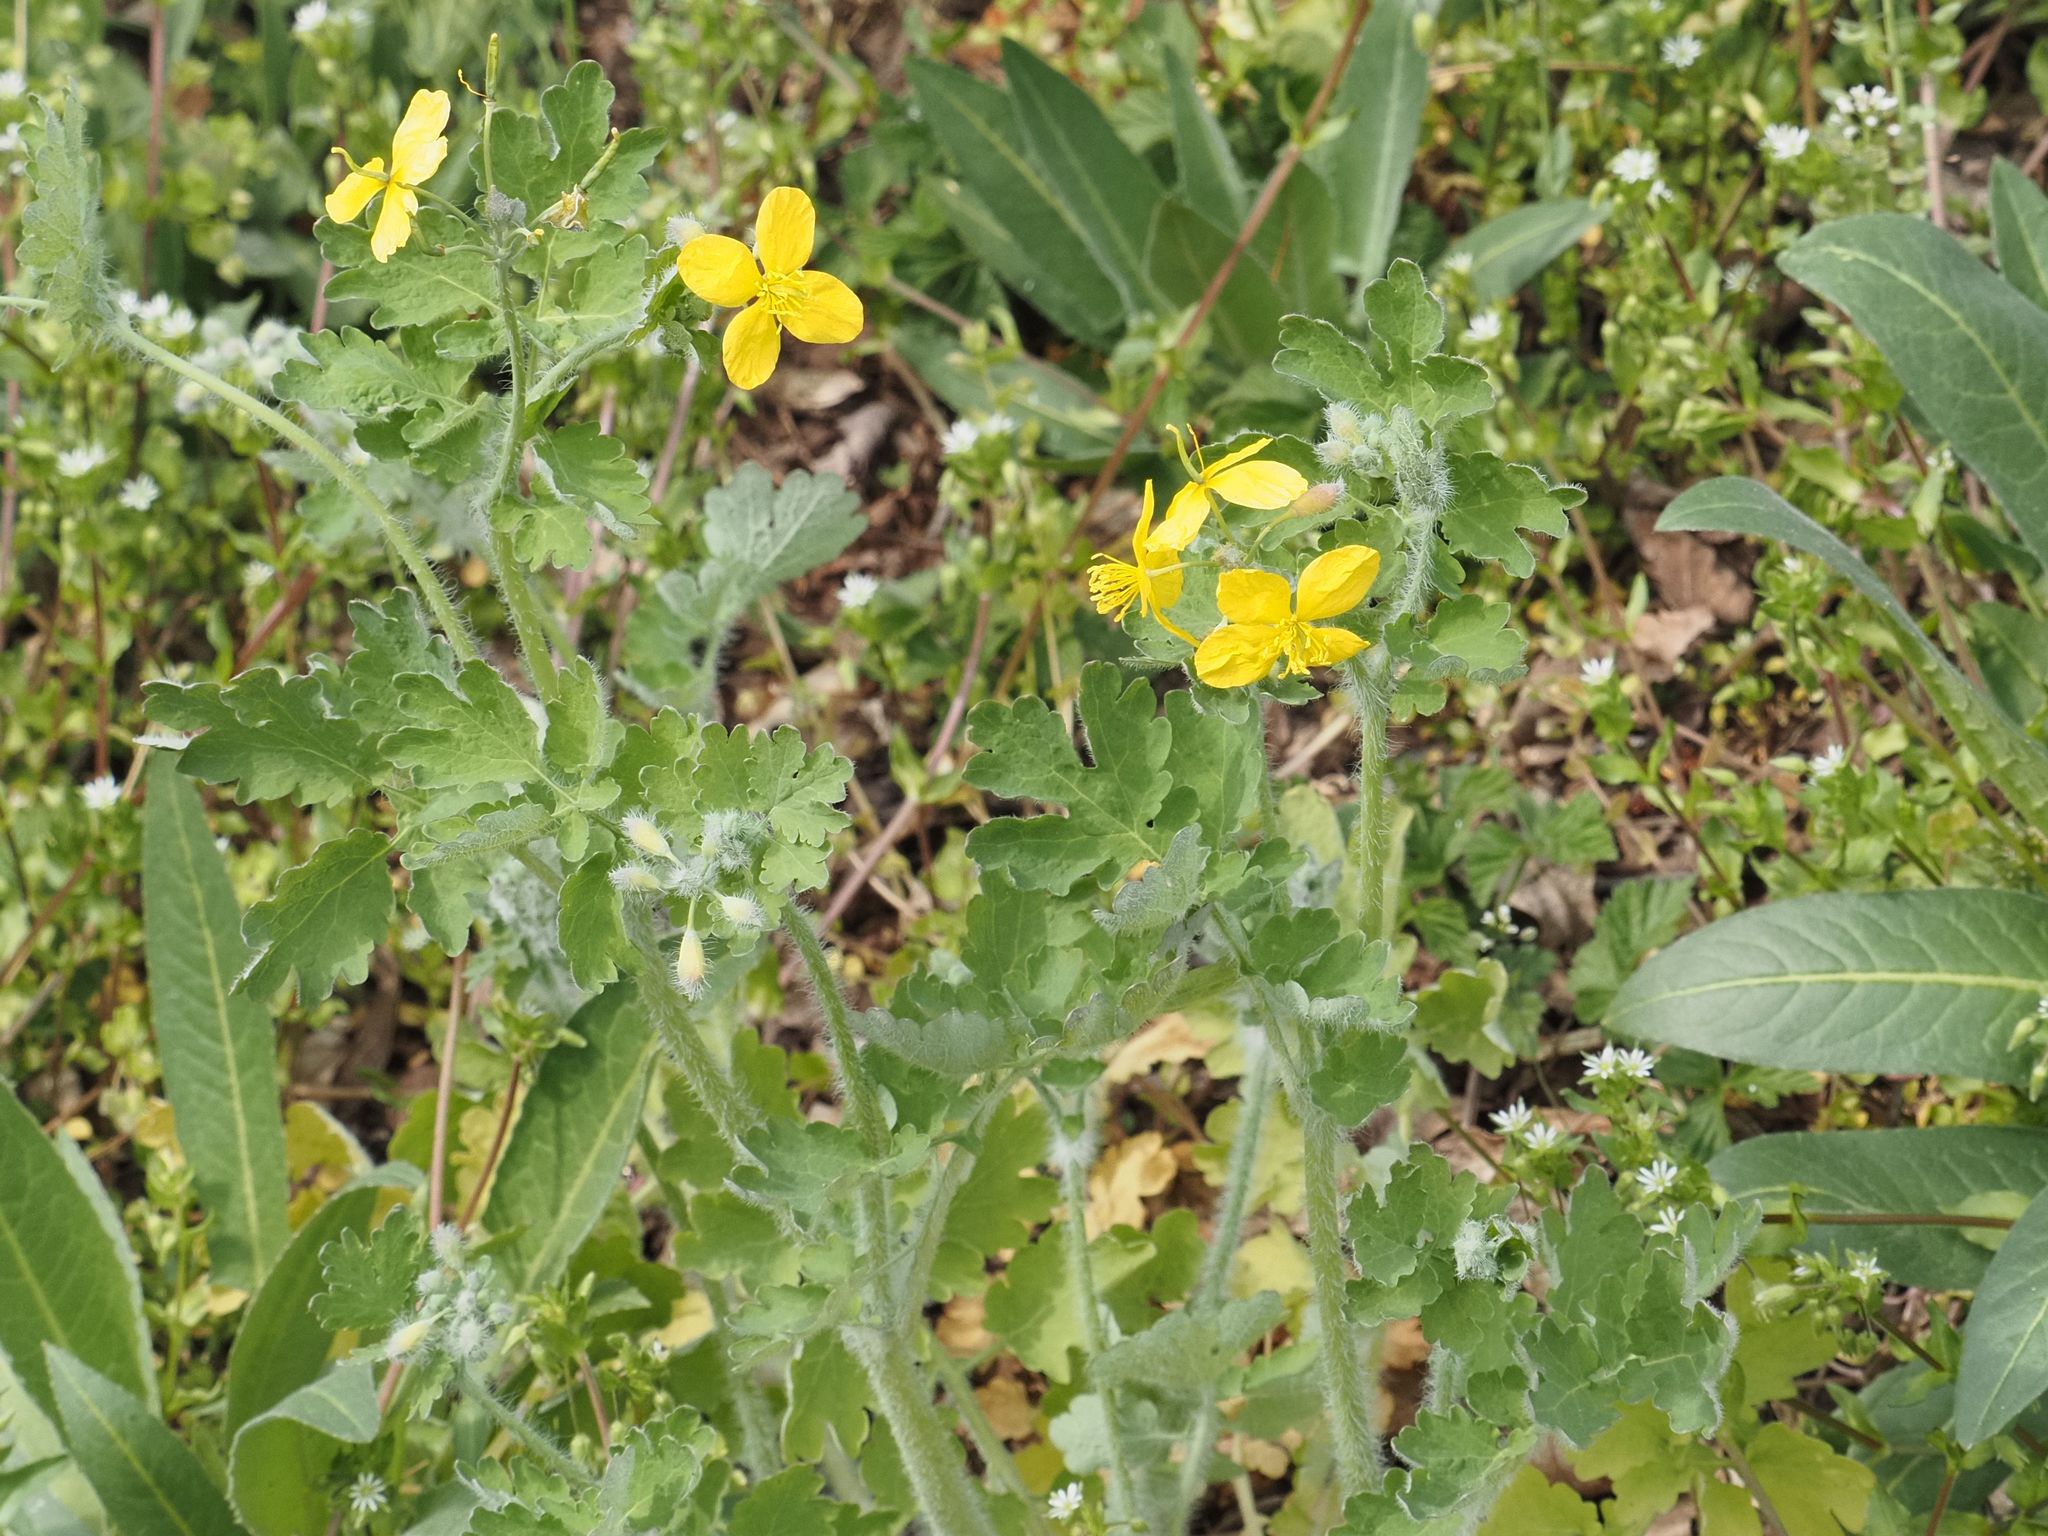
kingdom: Plantae
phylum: Tracheophyta
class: Magnoliopsida
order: Ranunculales
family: Papaveraceae
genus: Chelidonium
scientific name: Chelidonium majus
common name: Greater celandine
